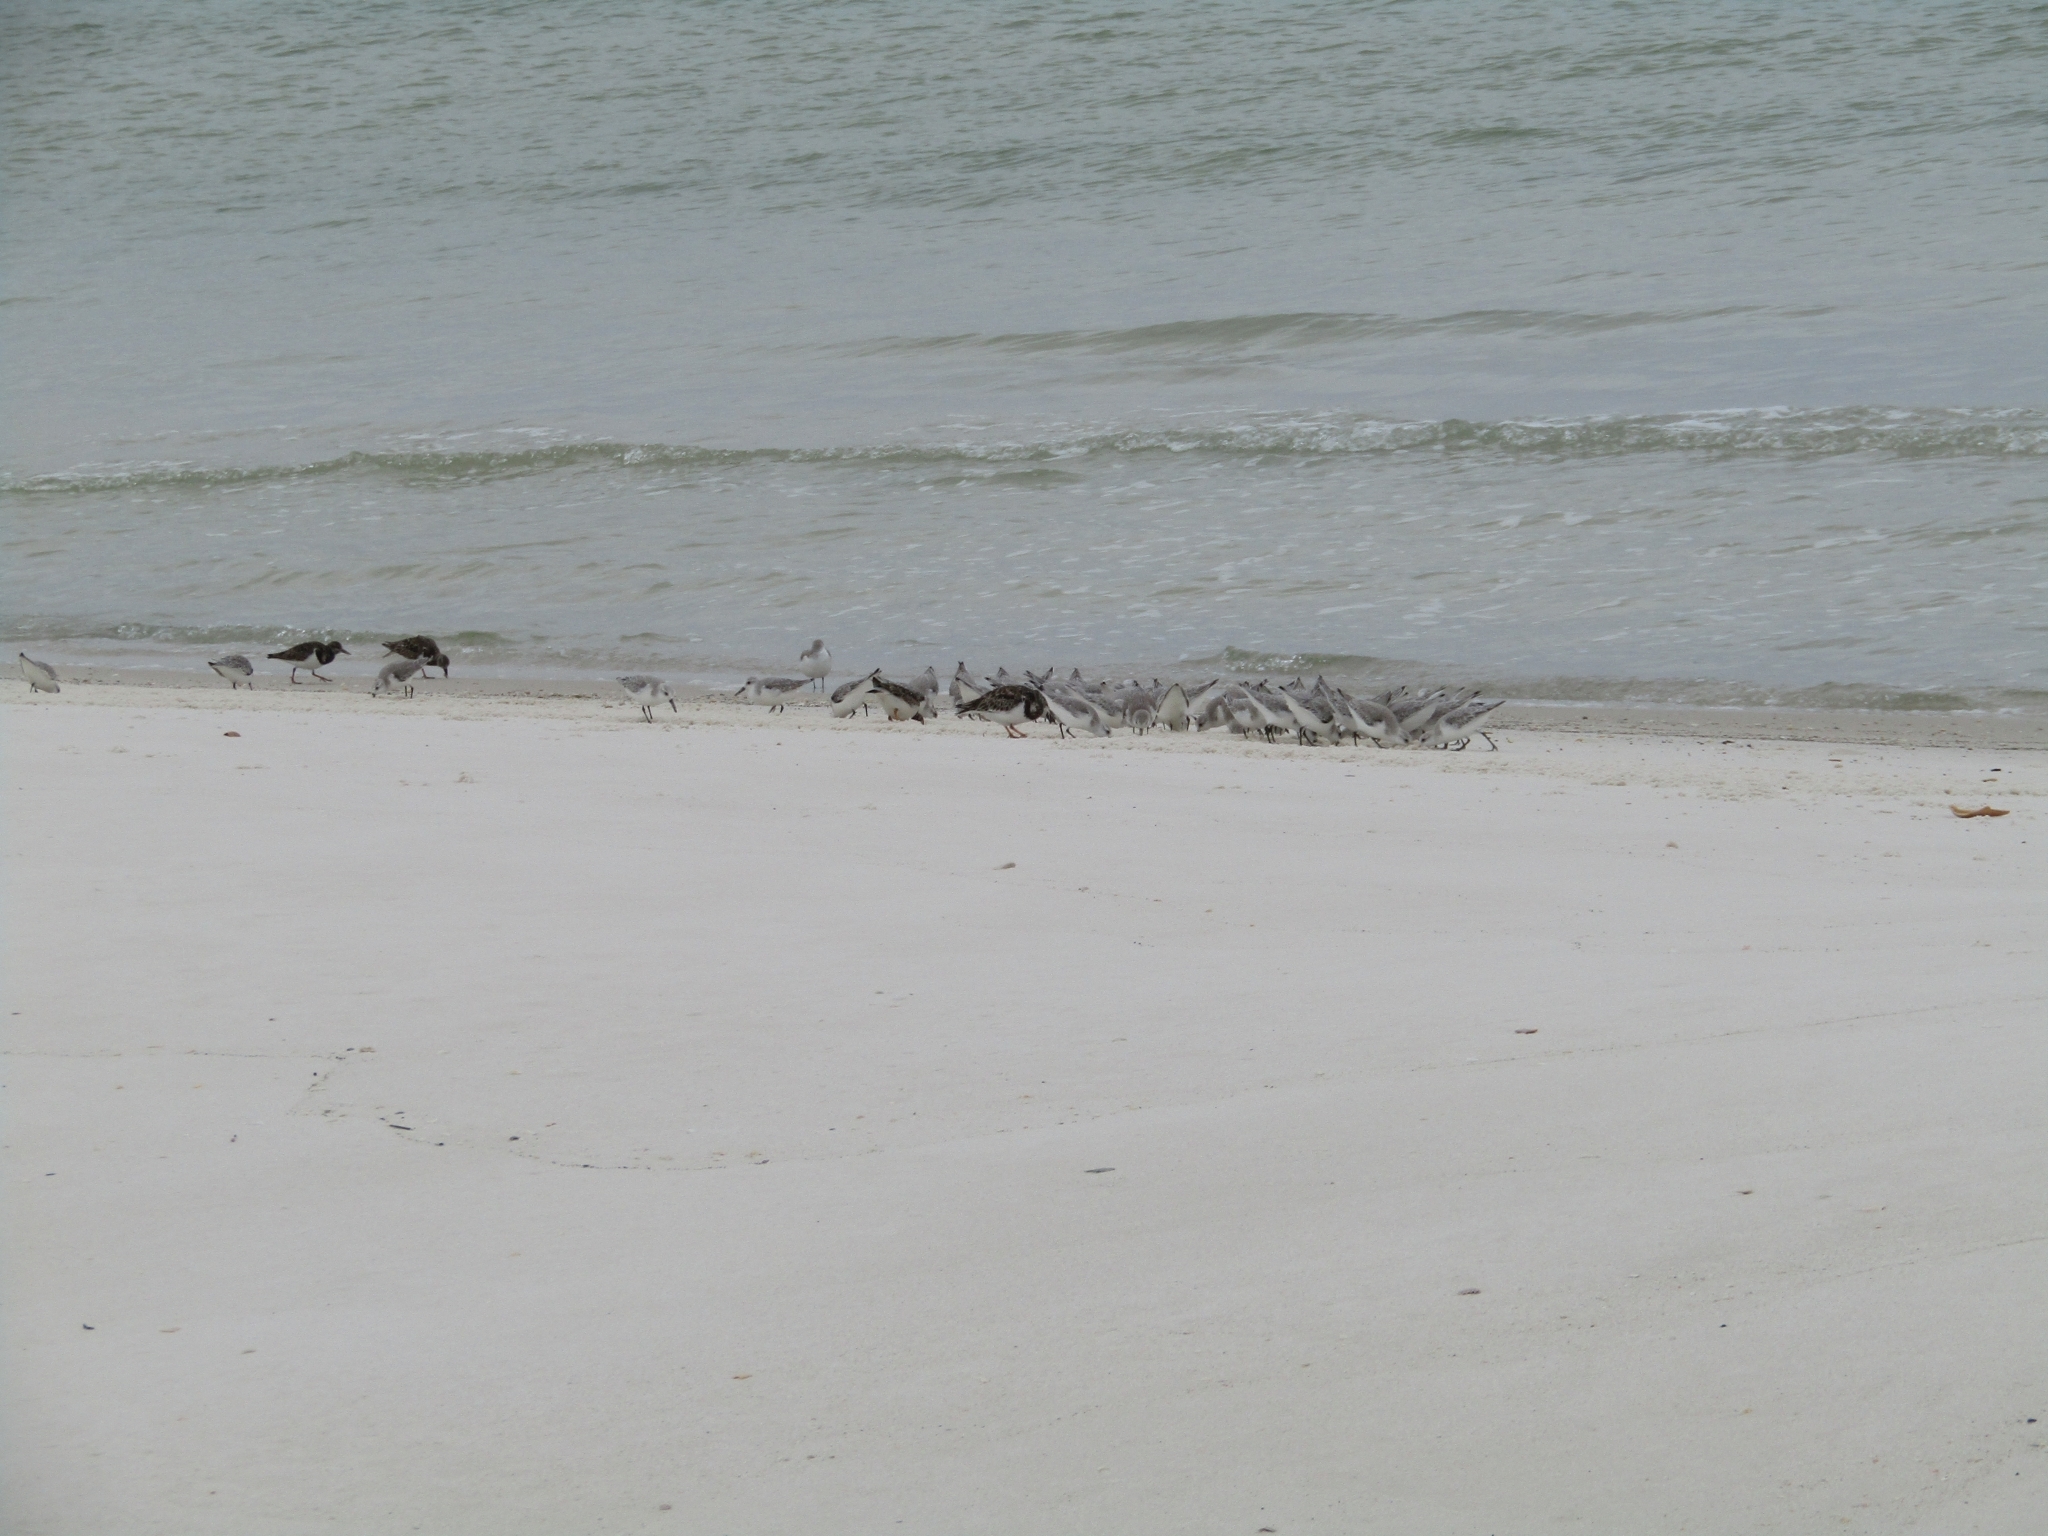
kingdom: Animalia
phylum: Chordata
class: Aves
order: Charadriiformes
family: Scolopacidae
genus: Calidris
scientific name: Calidris alba
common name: Sanderling
